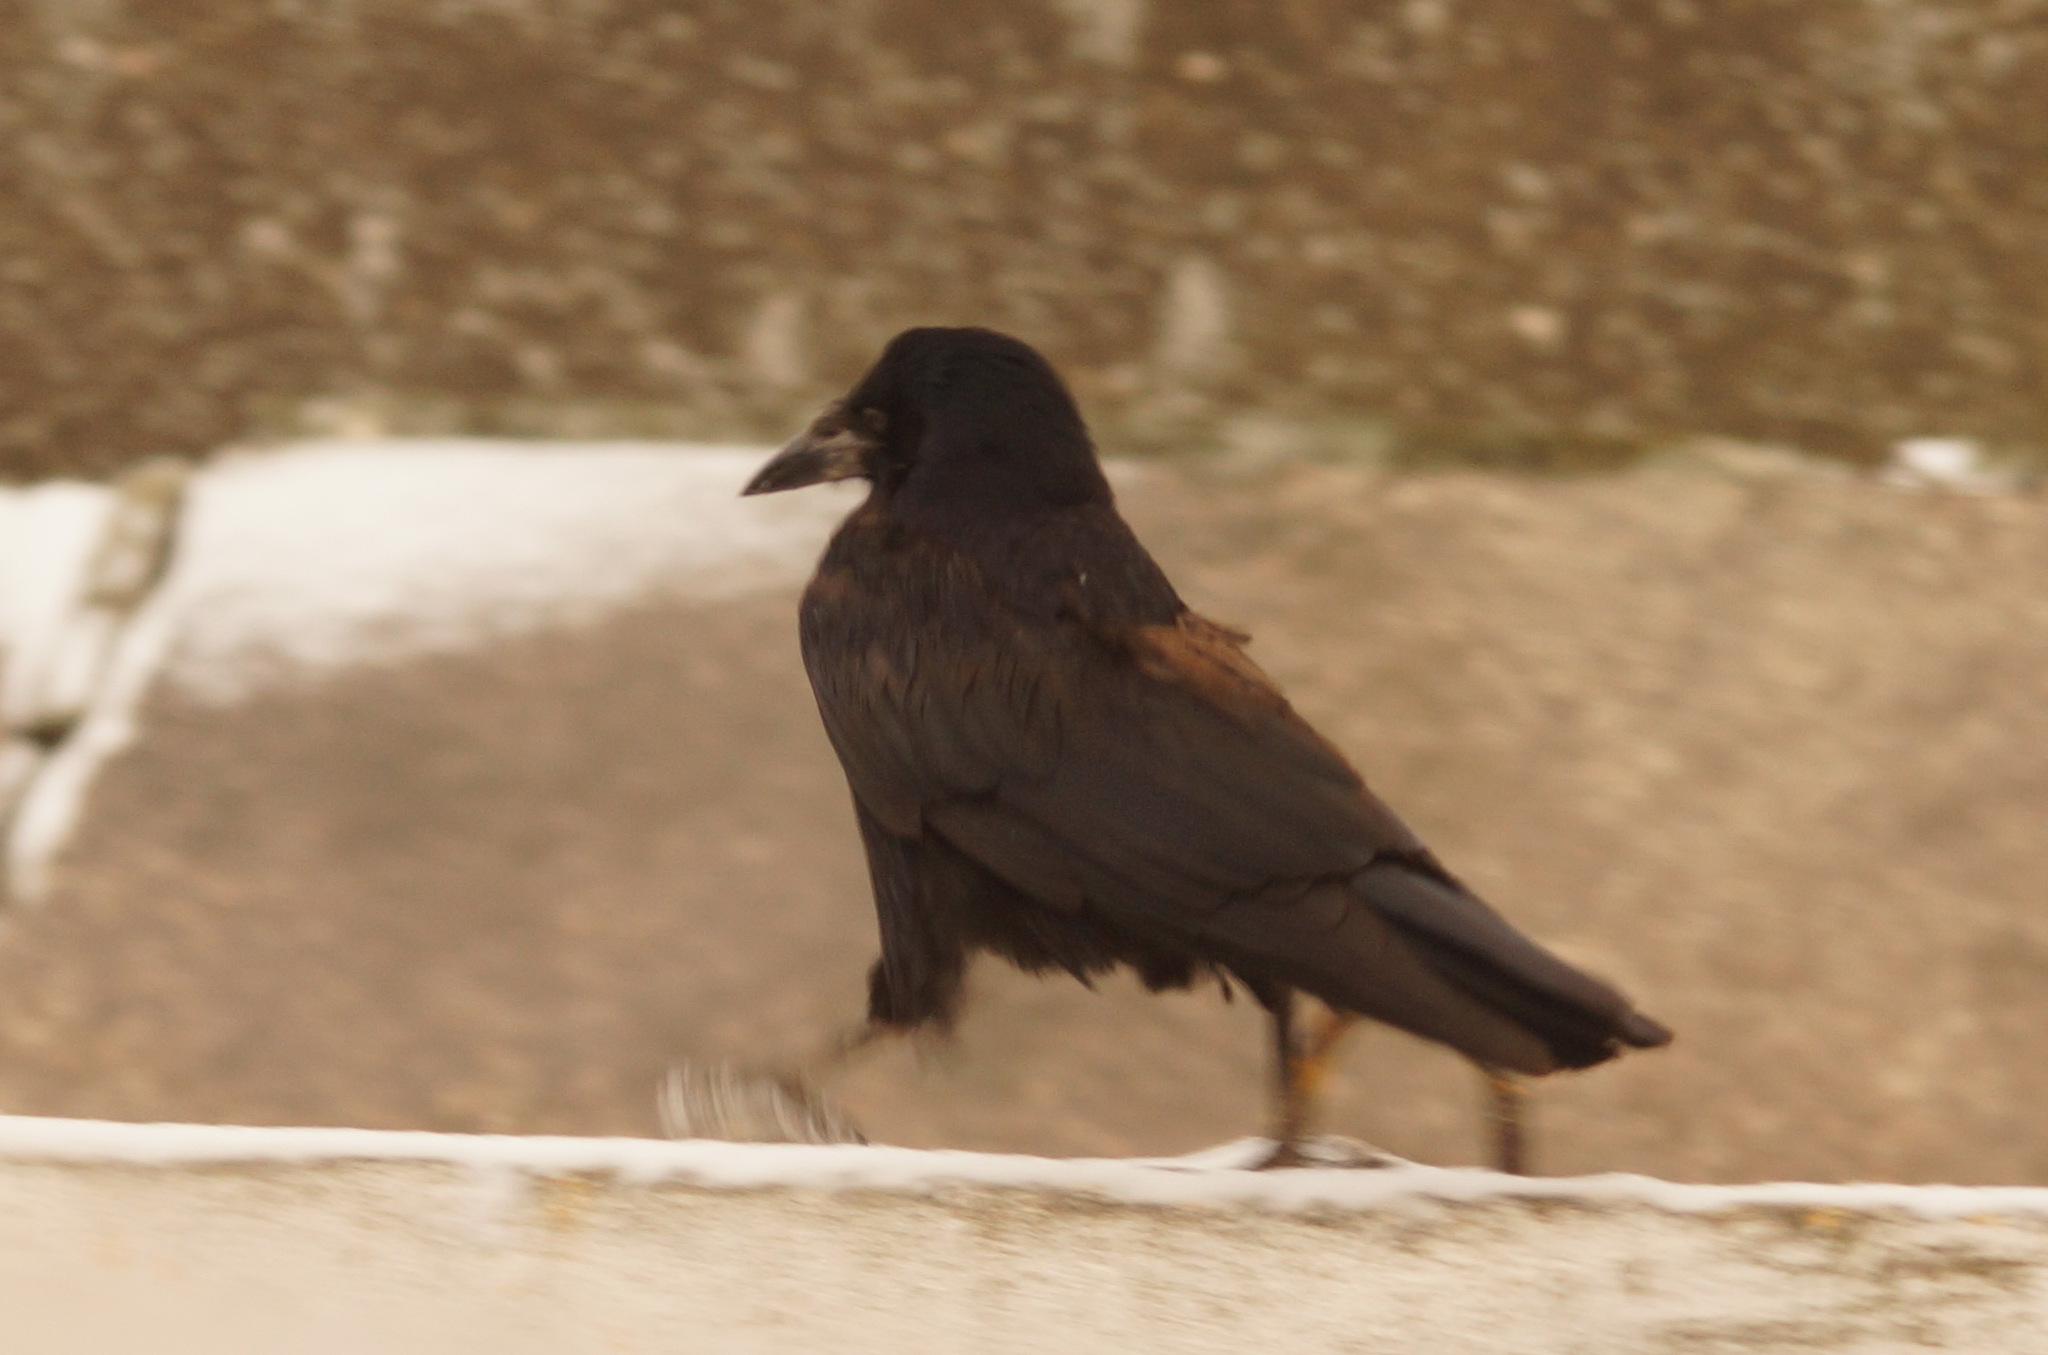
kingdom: Animalia
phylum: Chordata
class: Aves
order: Passeriformes
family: Corvidae
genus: Corvus
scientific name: Corvus frugilegus
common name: Rook
